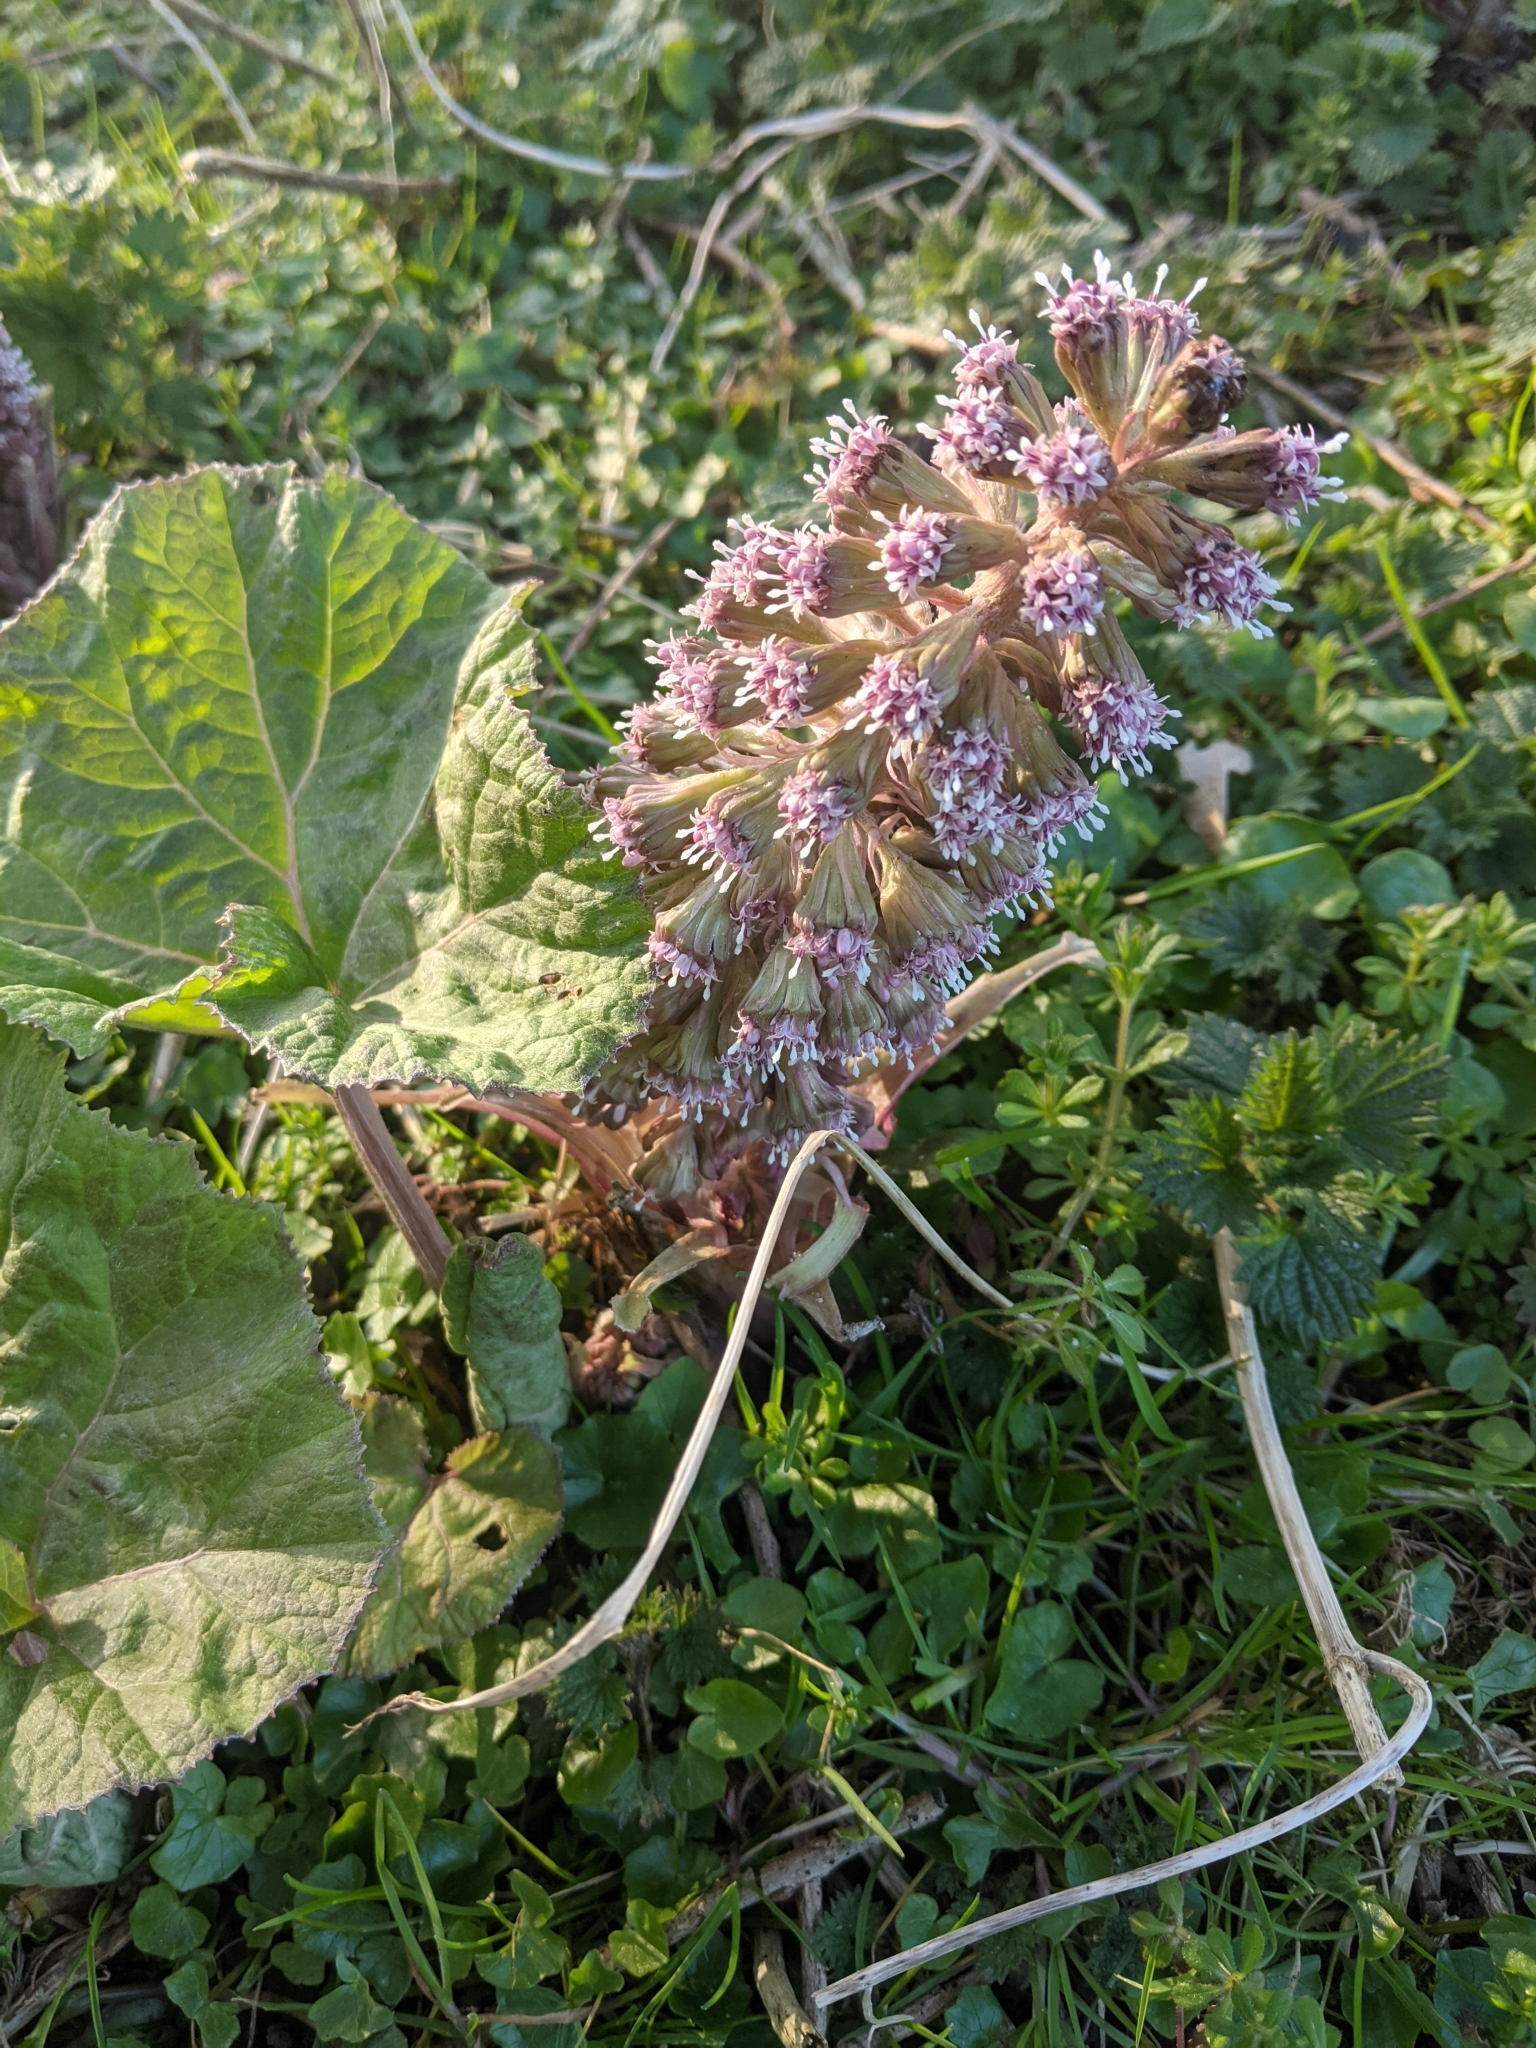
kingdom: Plantae
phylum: Tracheophyta
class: Magnoliopsida
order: Asterales
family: Asteraceae
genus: Petasites
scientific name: Petasites hybridus
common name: Butterbur
